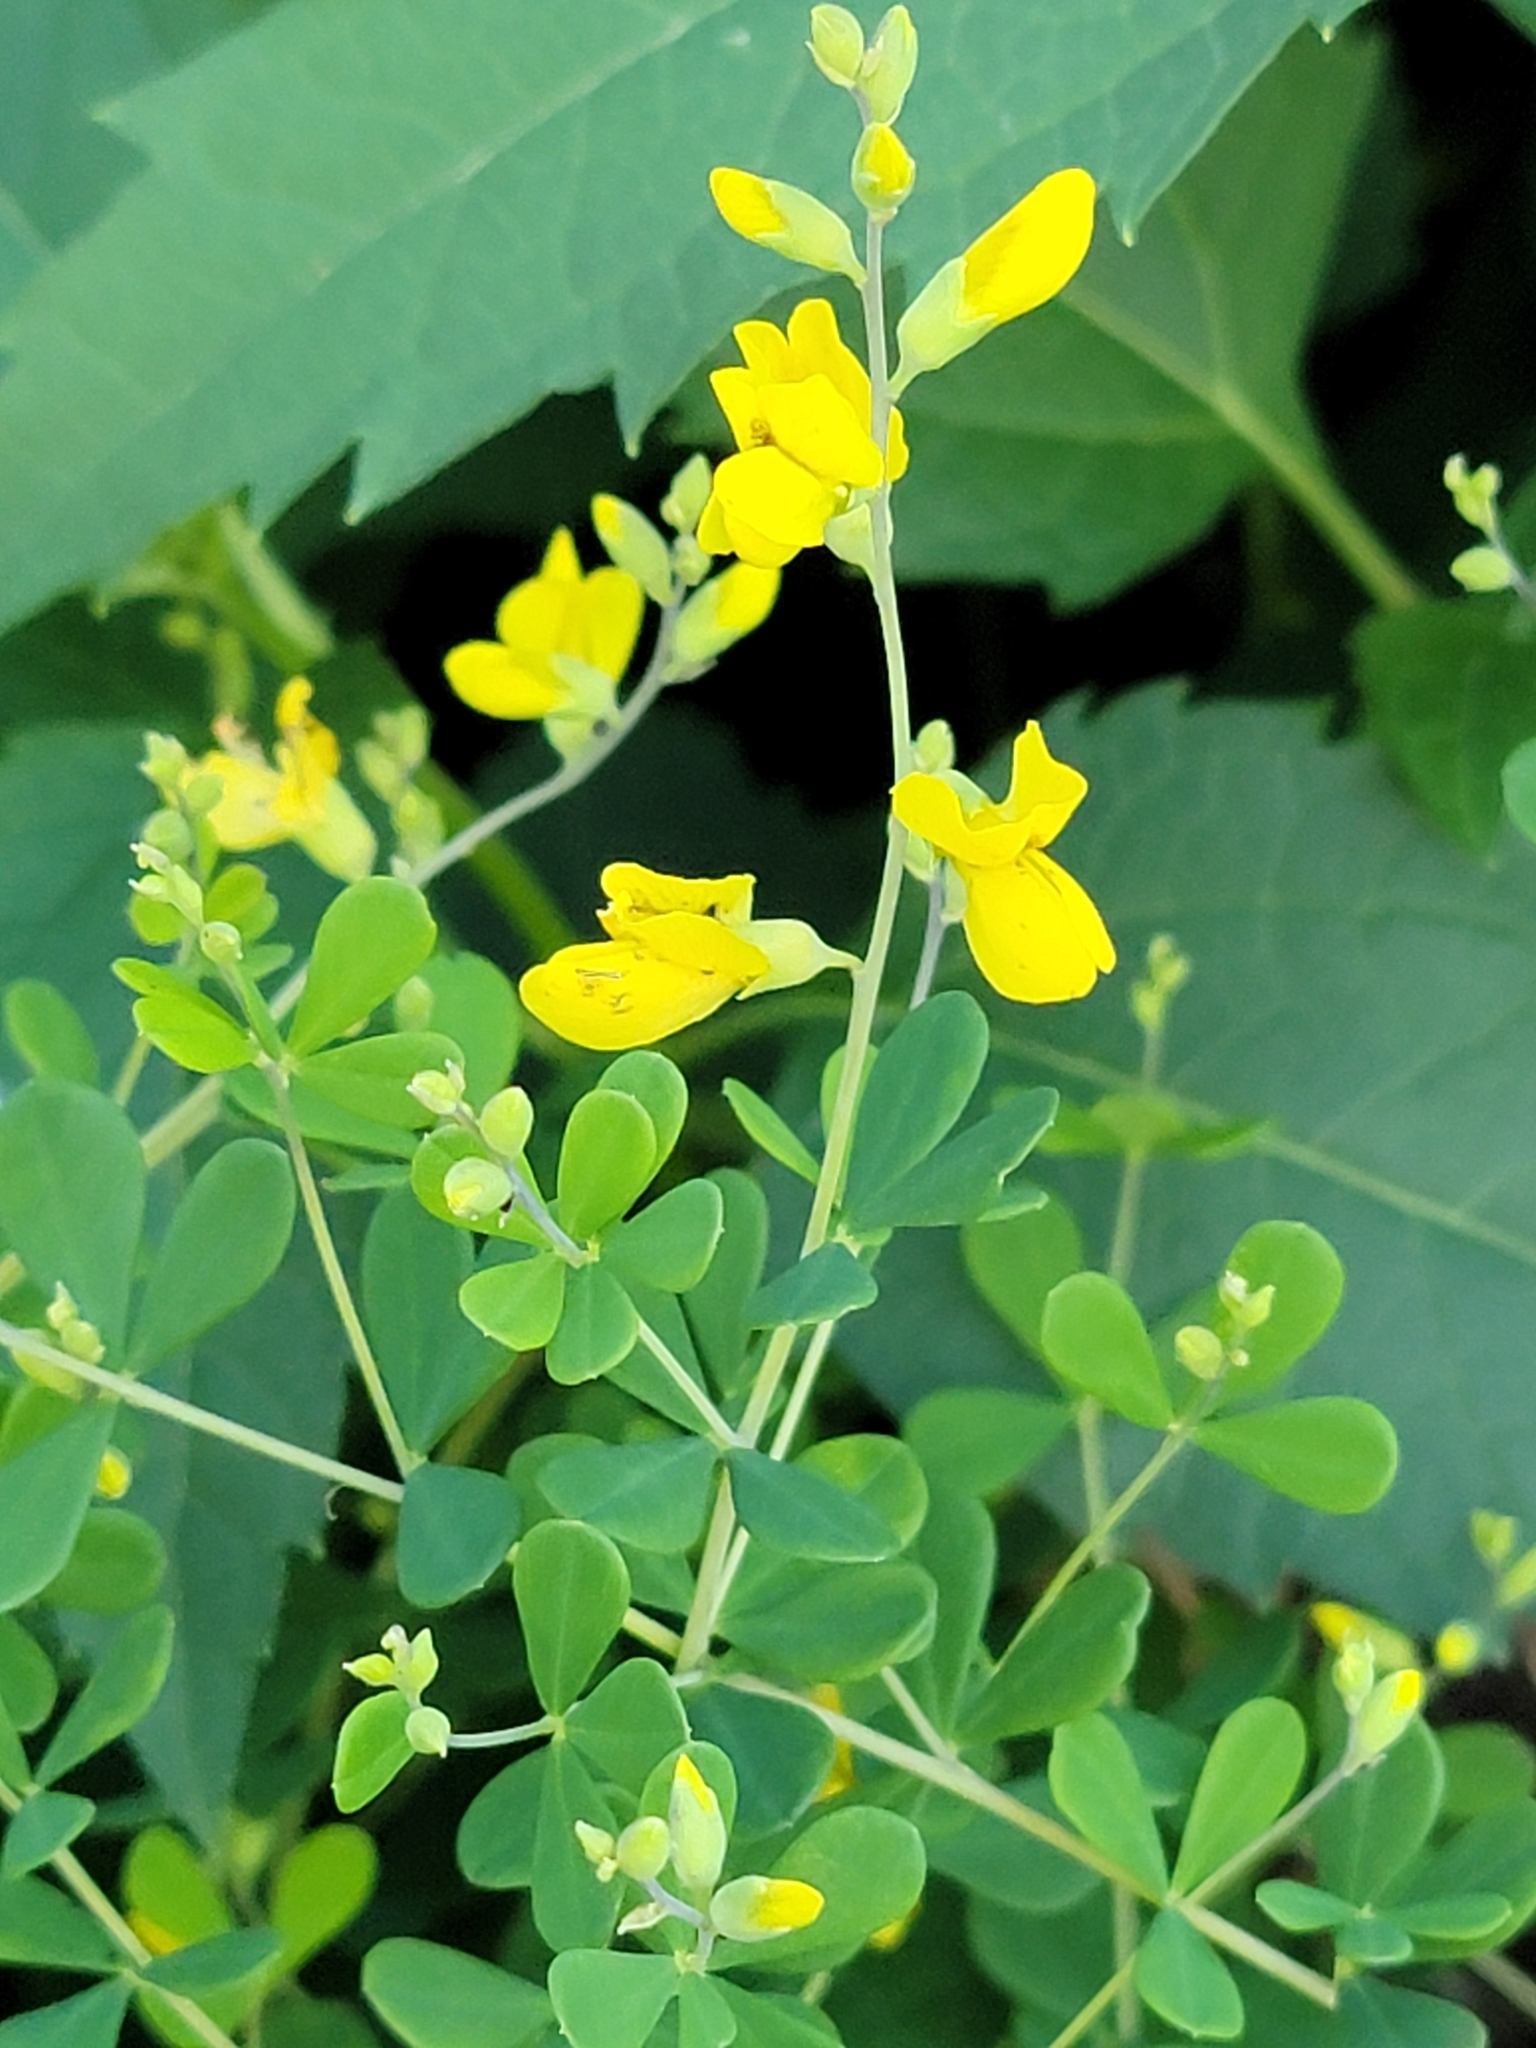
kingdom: Plantae
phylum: Tracheophyta
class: Magnoliopsida
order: Fabales
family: Fabaceae
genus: Baptisia
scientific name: Baptisia tinctoria
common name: Wild indigo
